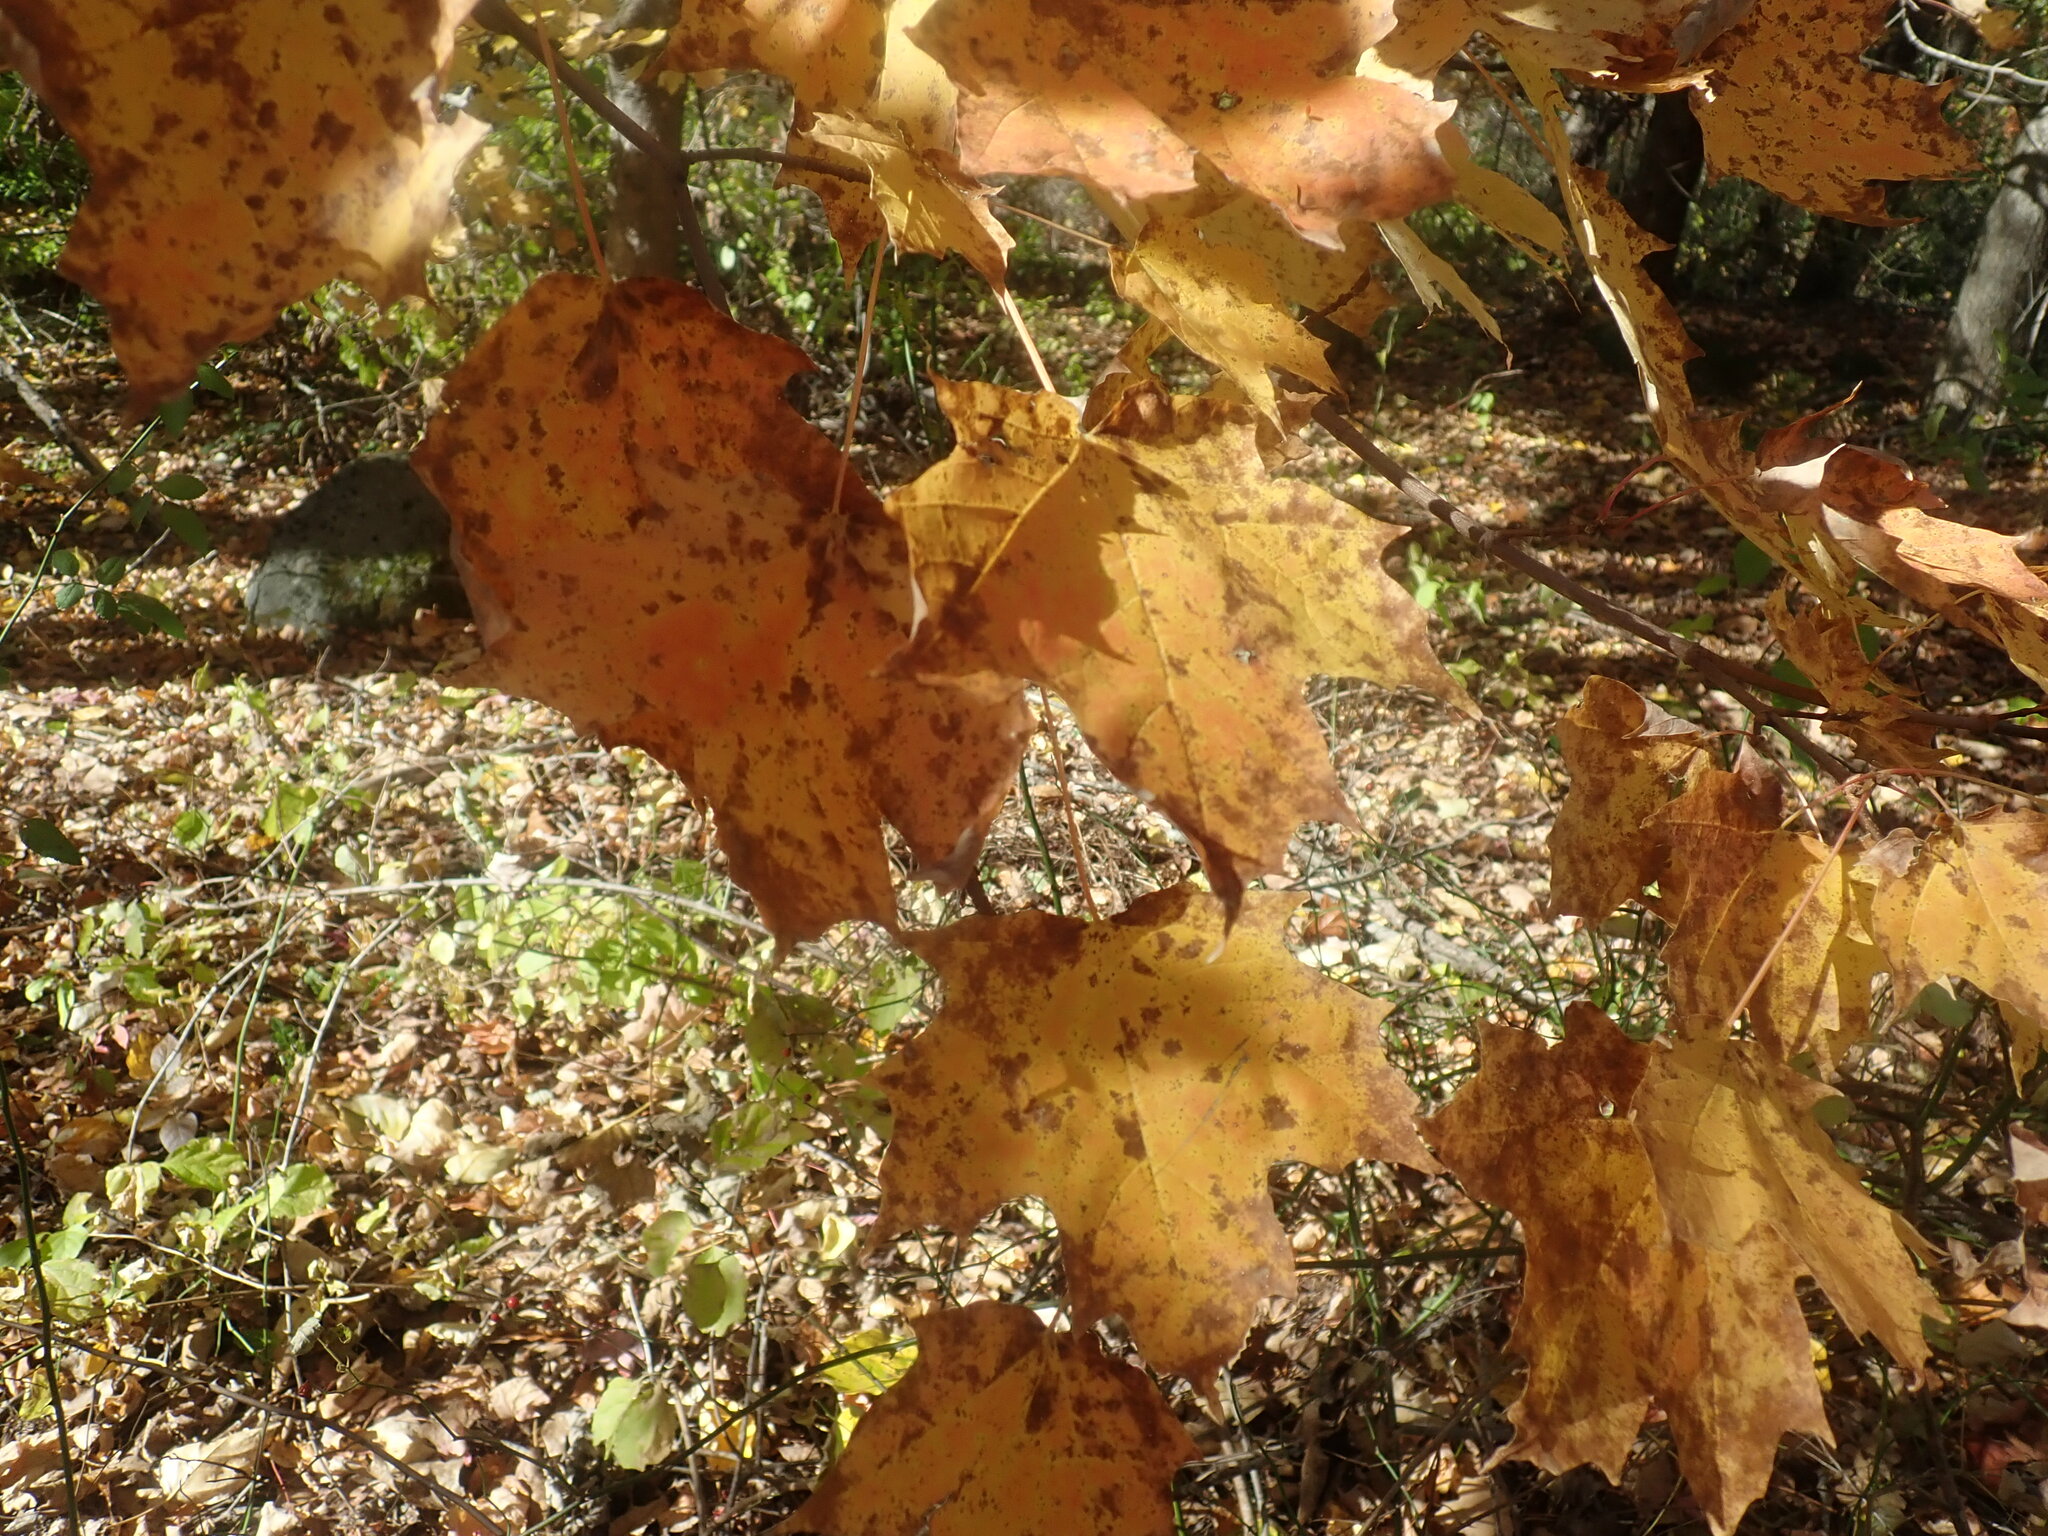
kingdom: Plantae
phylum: Tracheophyta
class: Magnoliopsida
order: Sapindales
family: Sapindaceae
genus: Acer
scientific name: Acer saccharum
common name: Sugar maple
